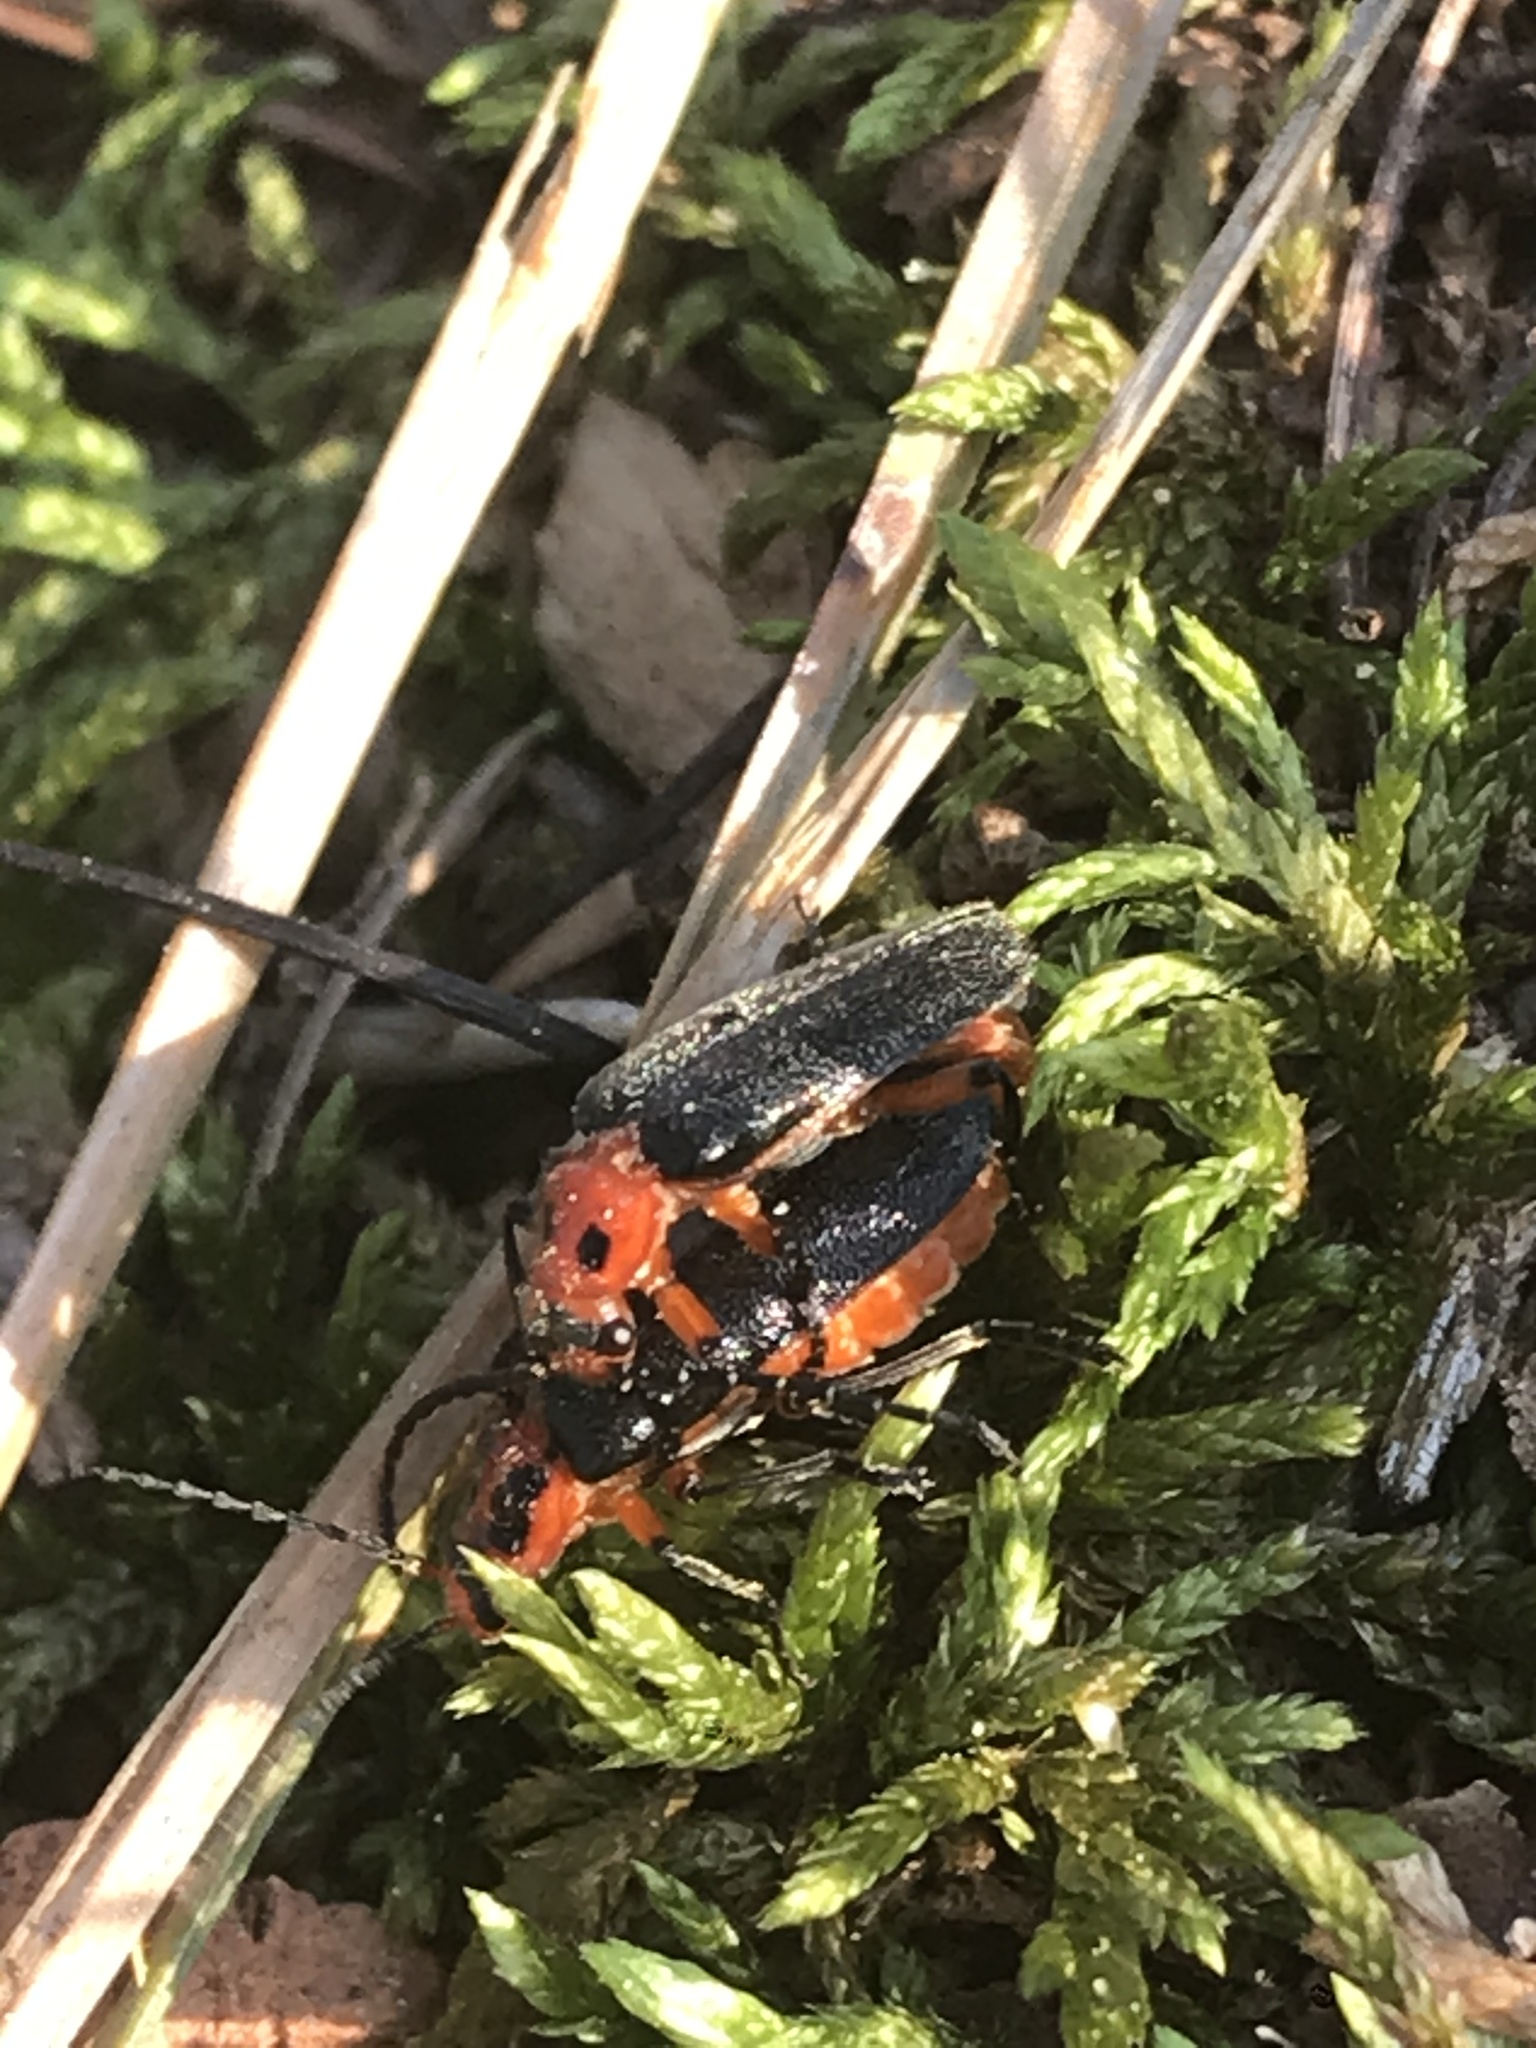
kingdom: Animalia
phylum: Arthropoda
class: Insecta
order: Coleoptera
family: Cantharidae
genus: Atalantycha
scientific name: Atalantycha bilineata
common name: Two-lined leatherwing
